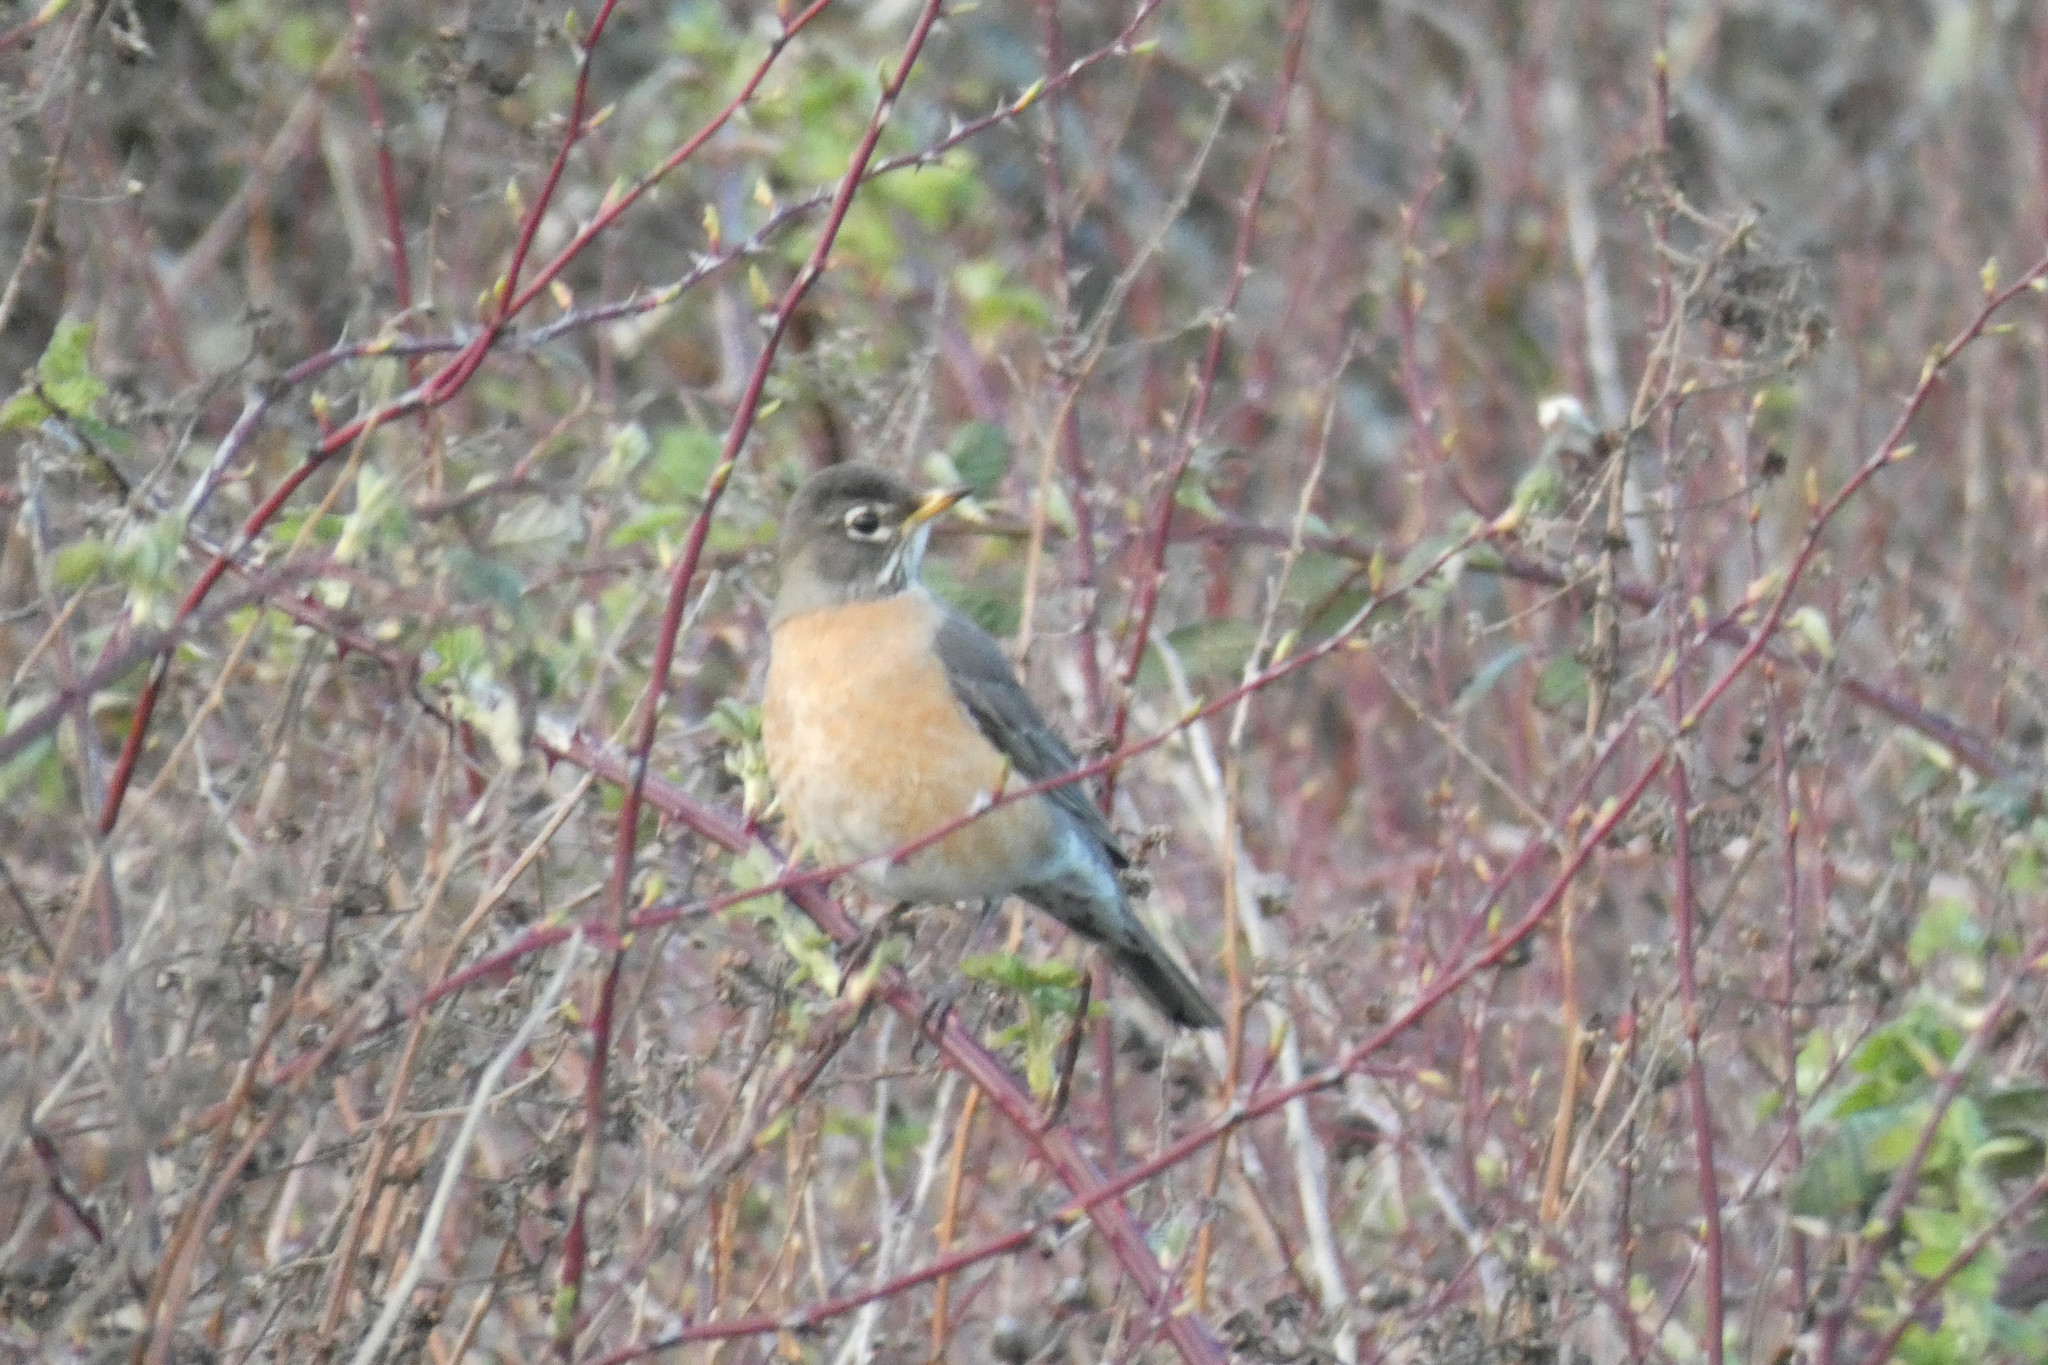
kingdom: Animalia
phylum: Chordata
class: Aves
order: Passeriformes
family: Turdidae
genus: Turdus
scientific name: Turdus migratorius
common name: American robin
